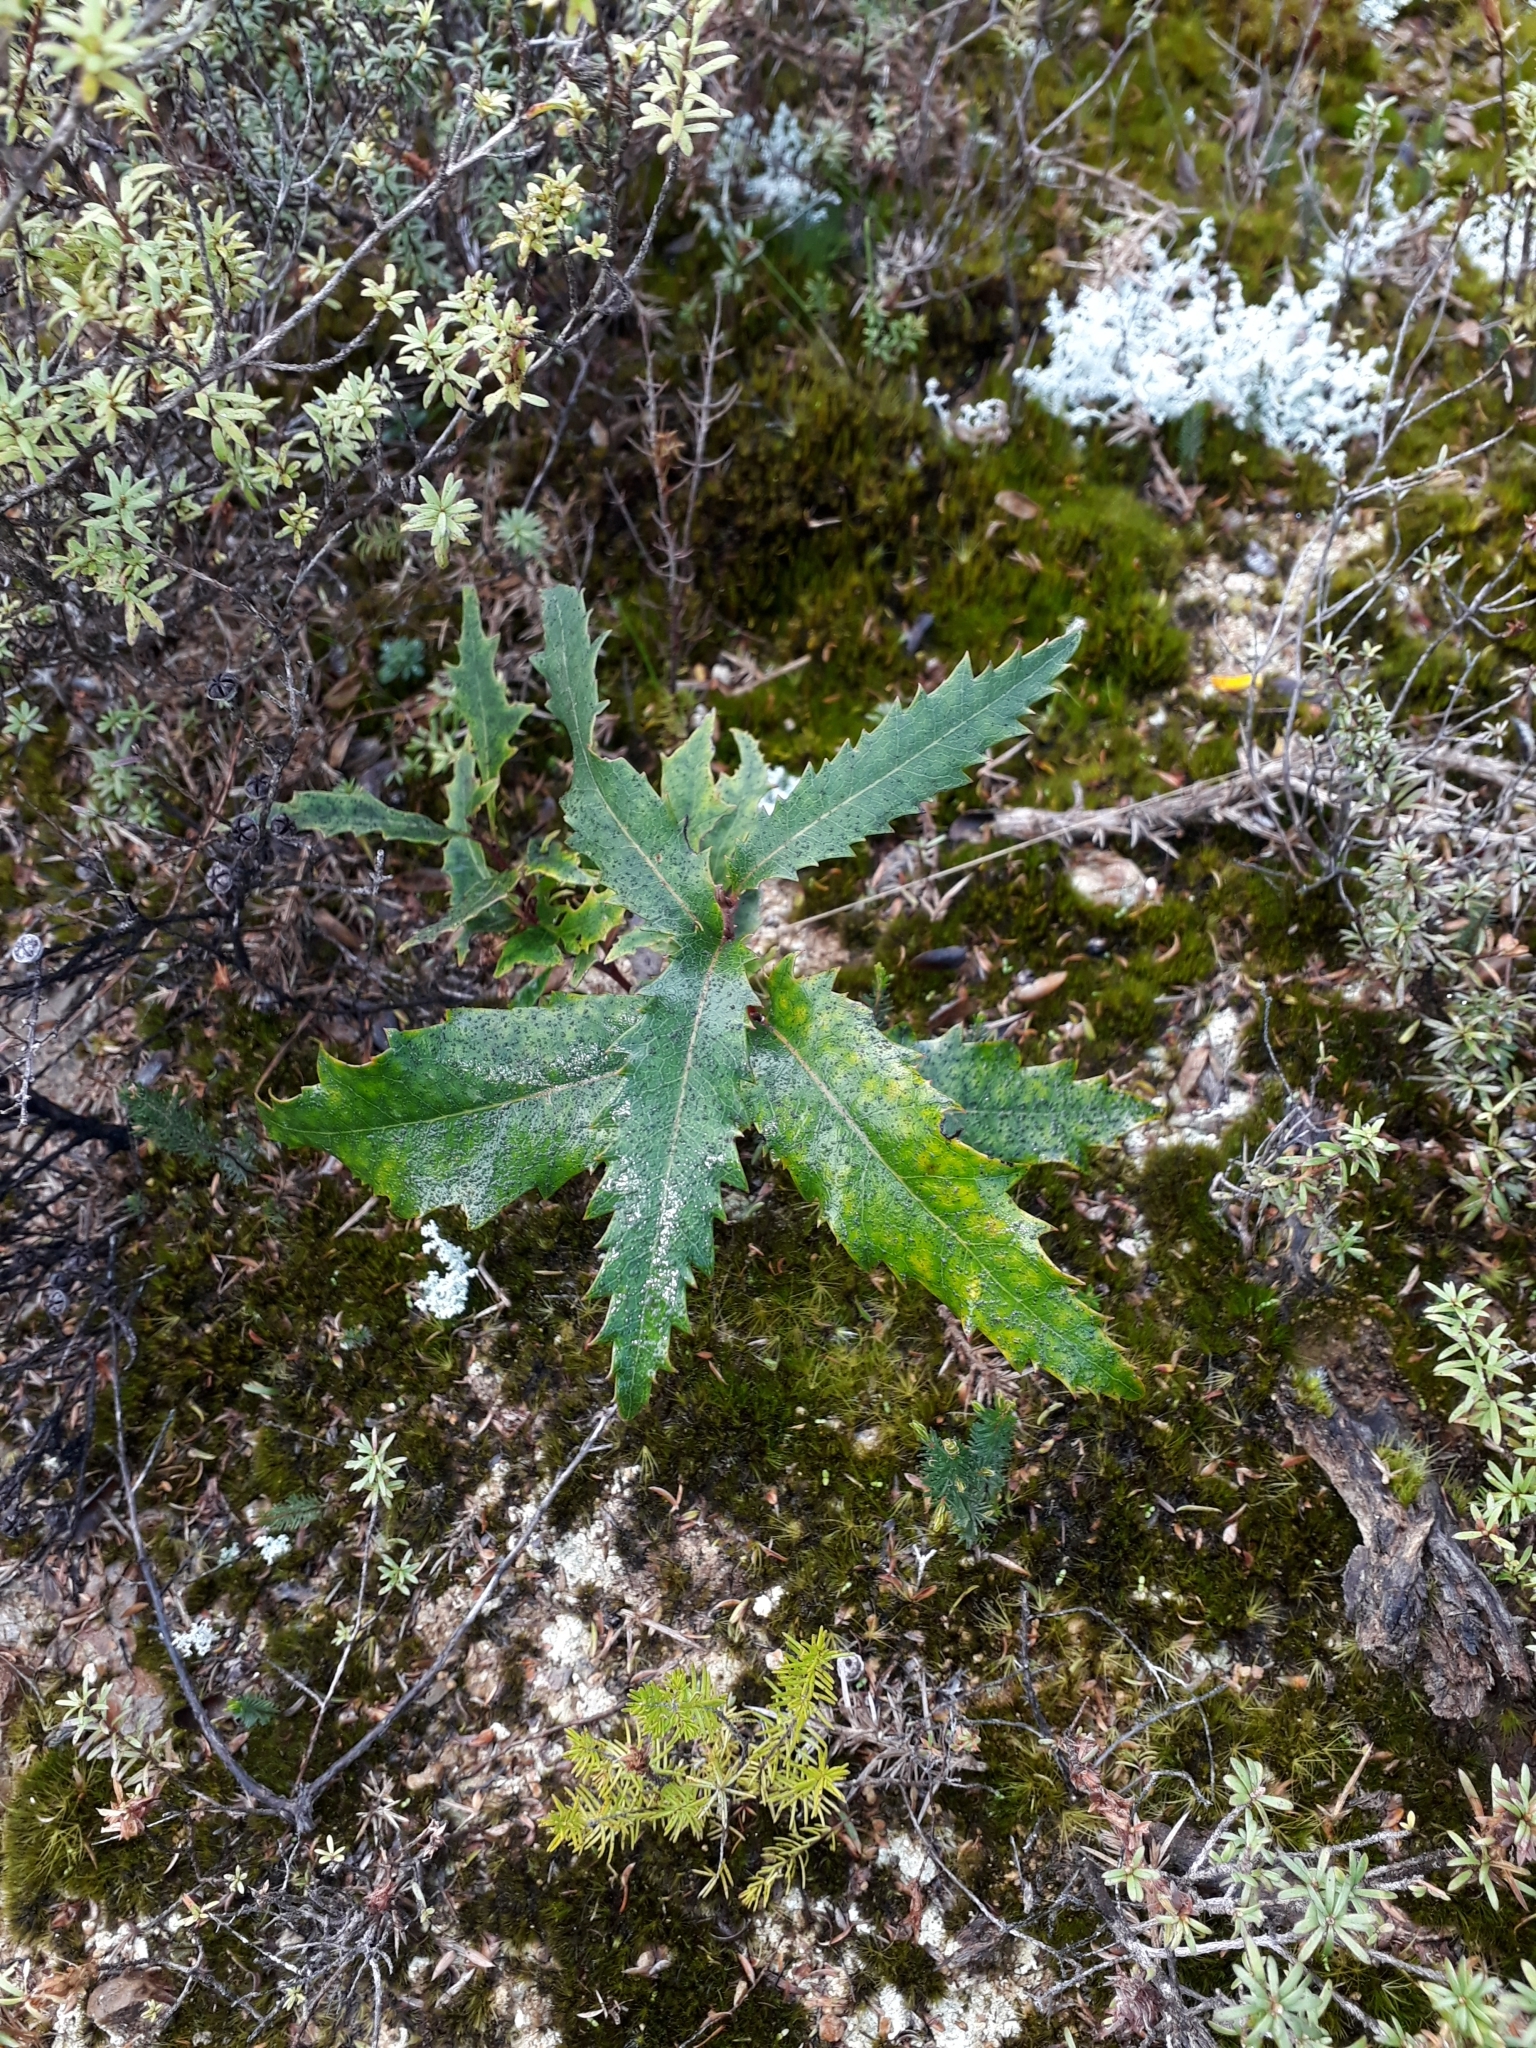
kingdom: Plantae
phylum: Tracheophyta
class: Magnoliopsida
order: Proteales
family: Proteaceae
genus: Lomatia
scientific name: Lomatia fraseri
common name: Forest lomatia
